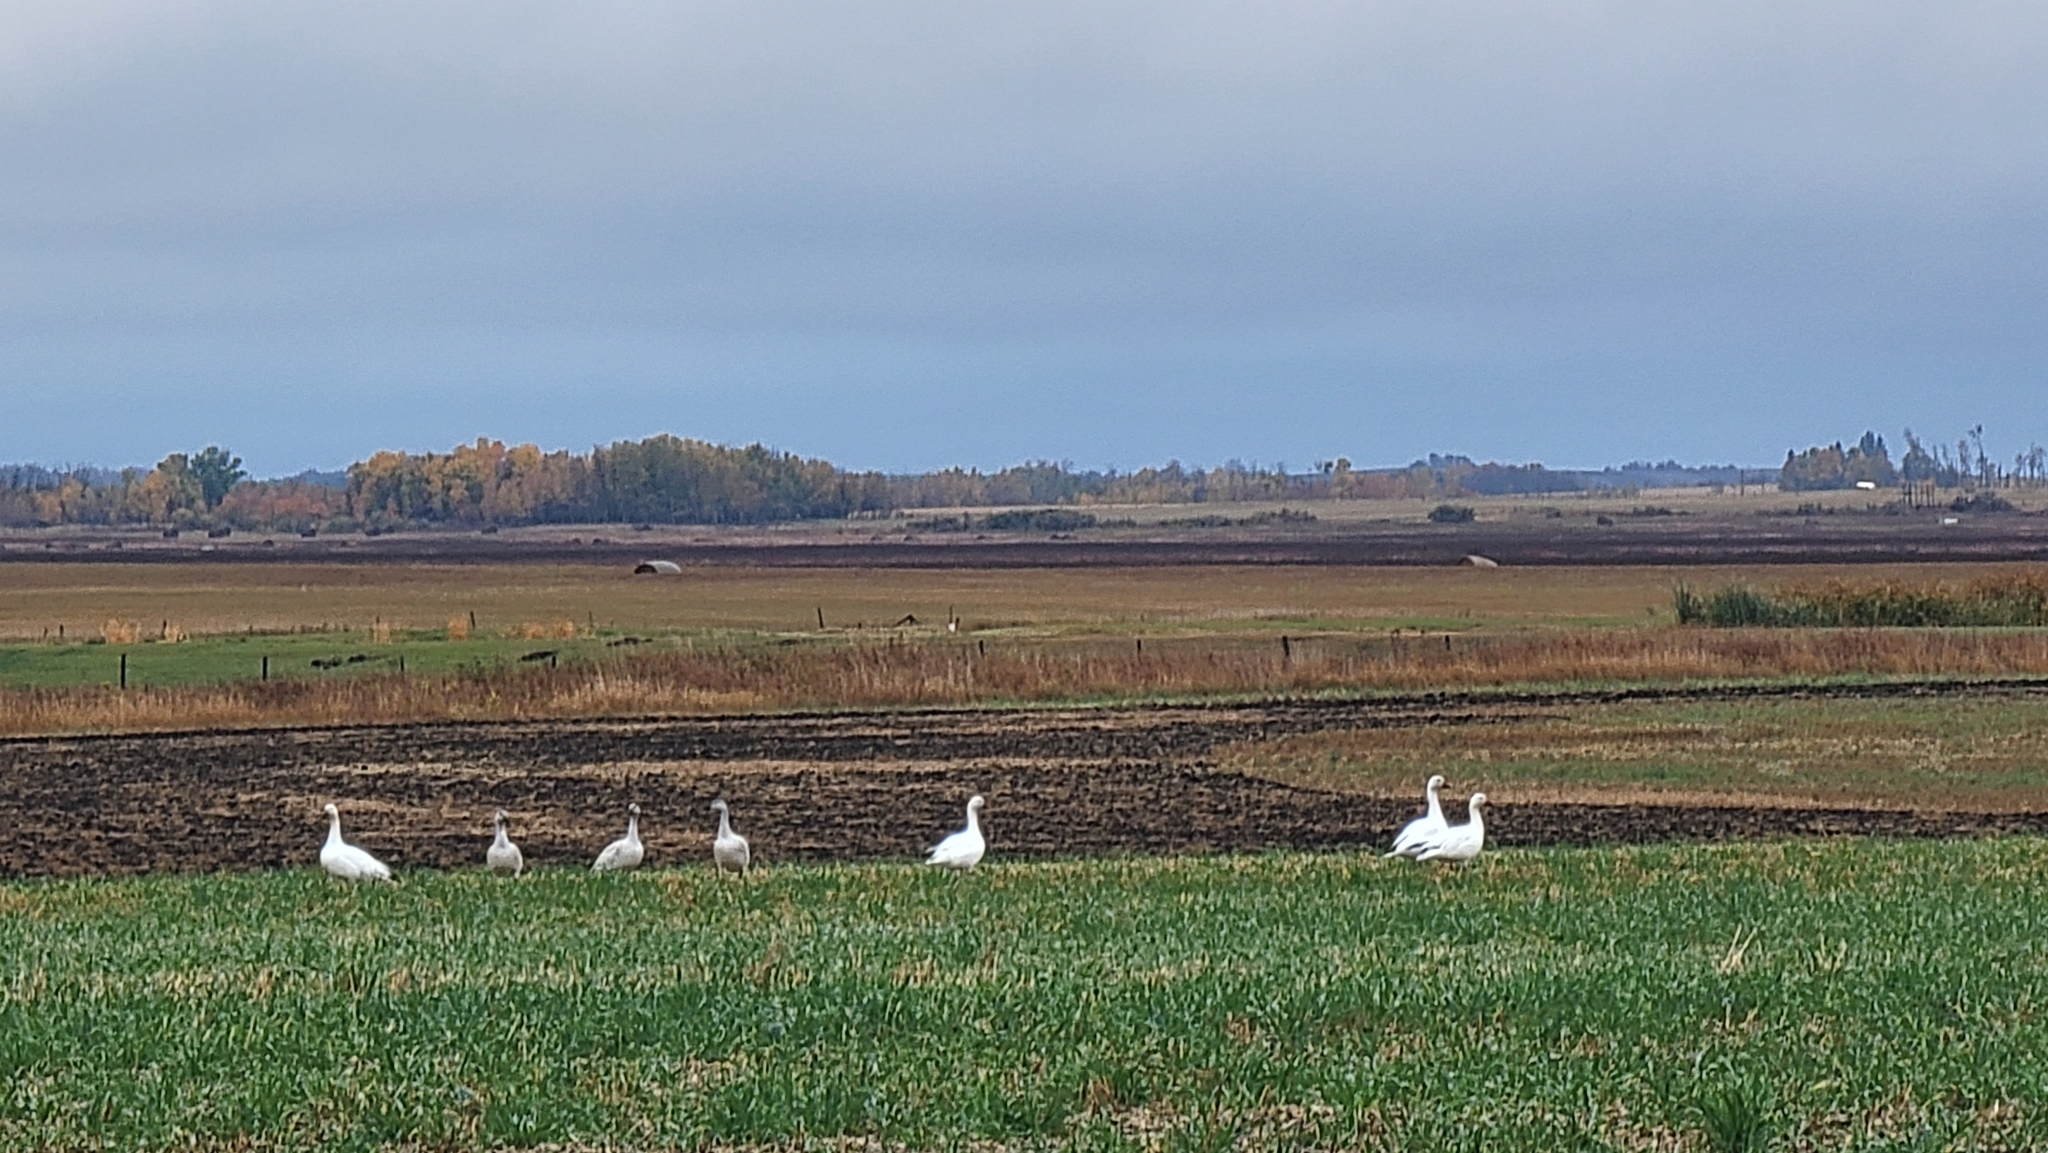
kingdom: Animalia
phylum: Chordata
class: Aves
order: Anseriformes
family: Anatidae
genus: Anser
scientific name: Anser caerulescens
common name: Snow goose
